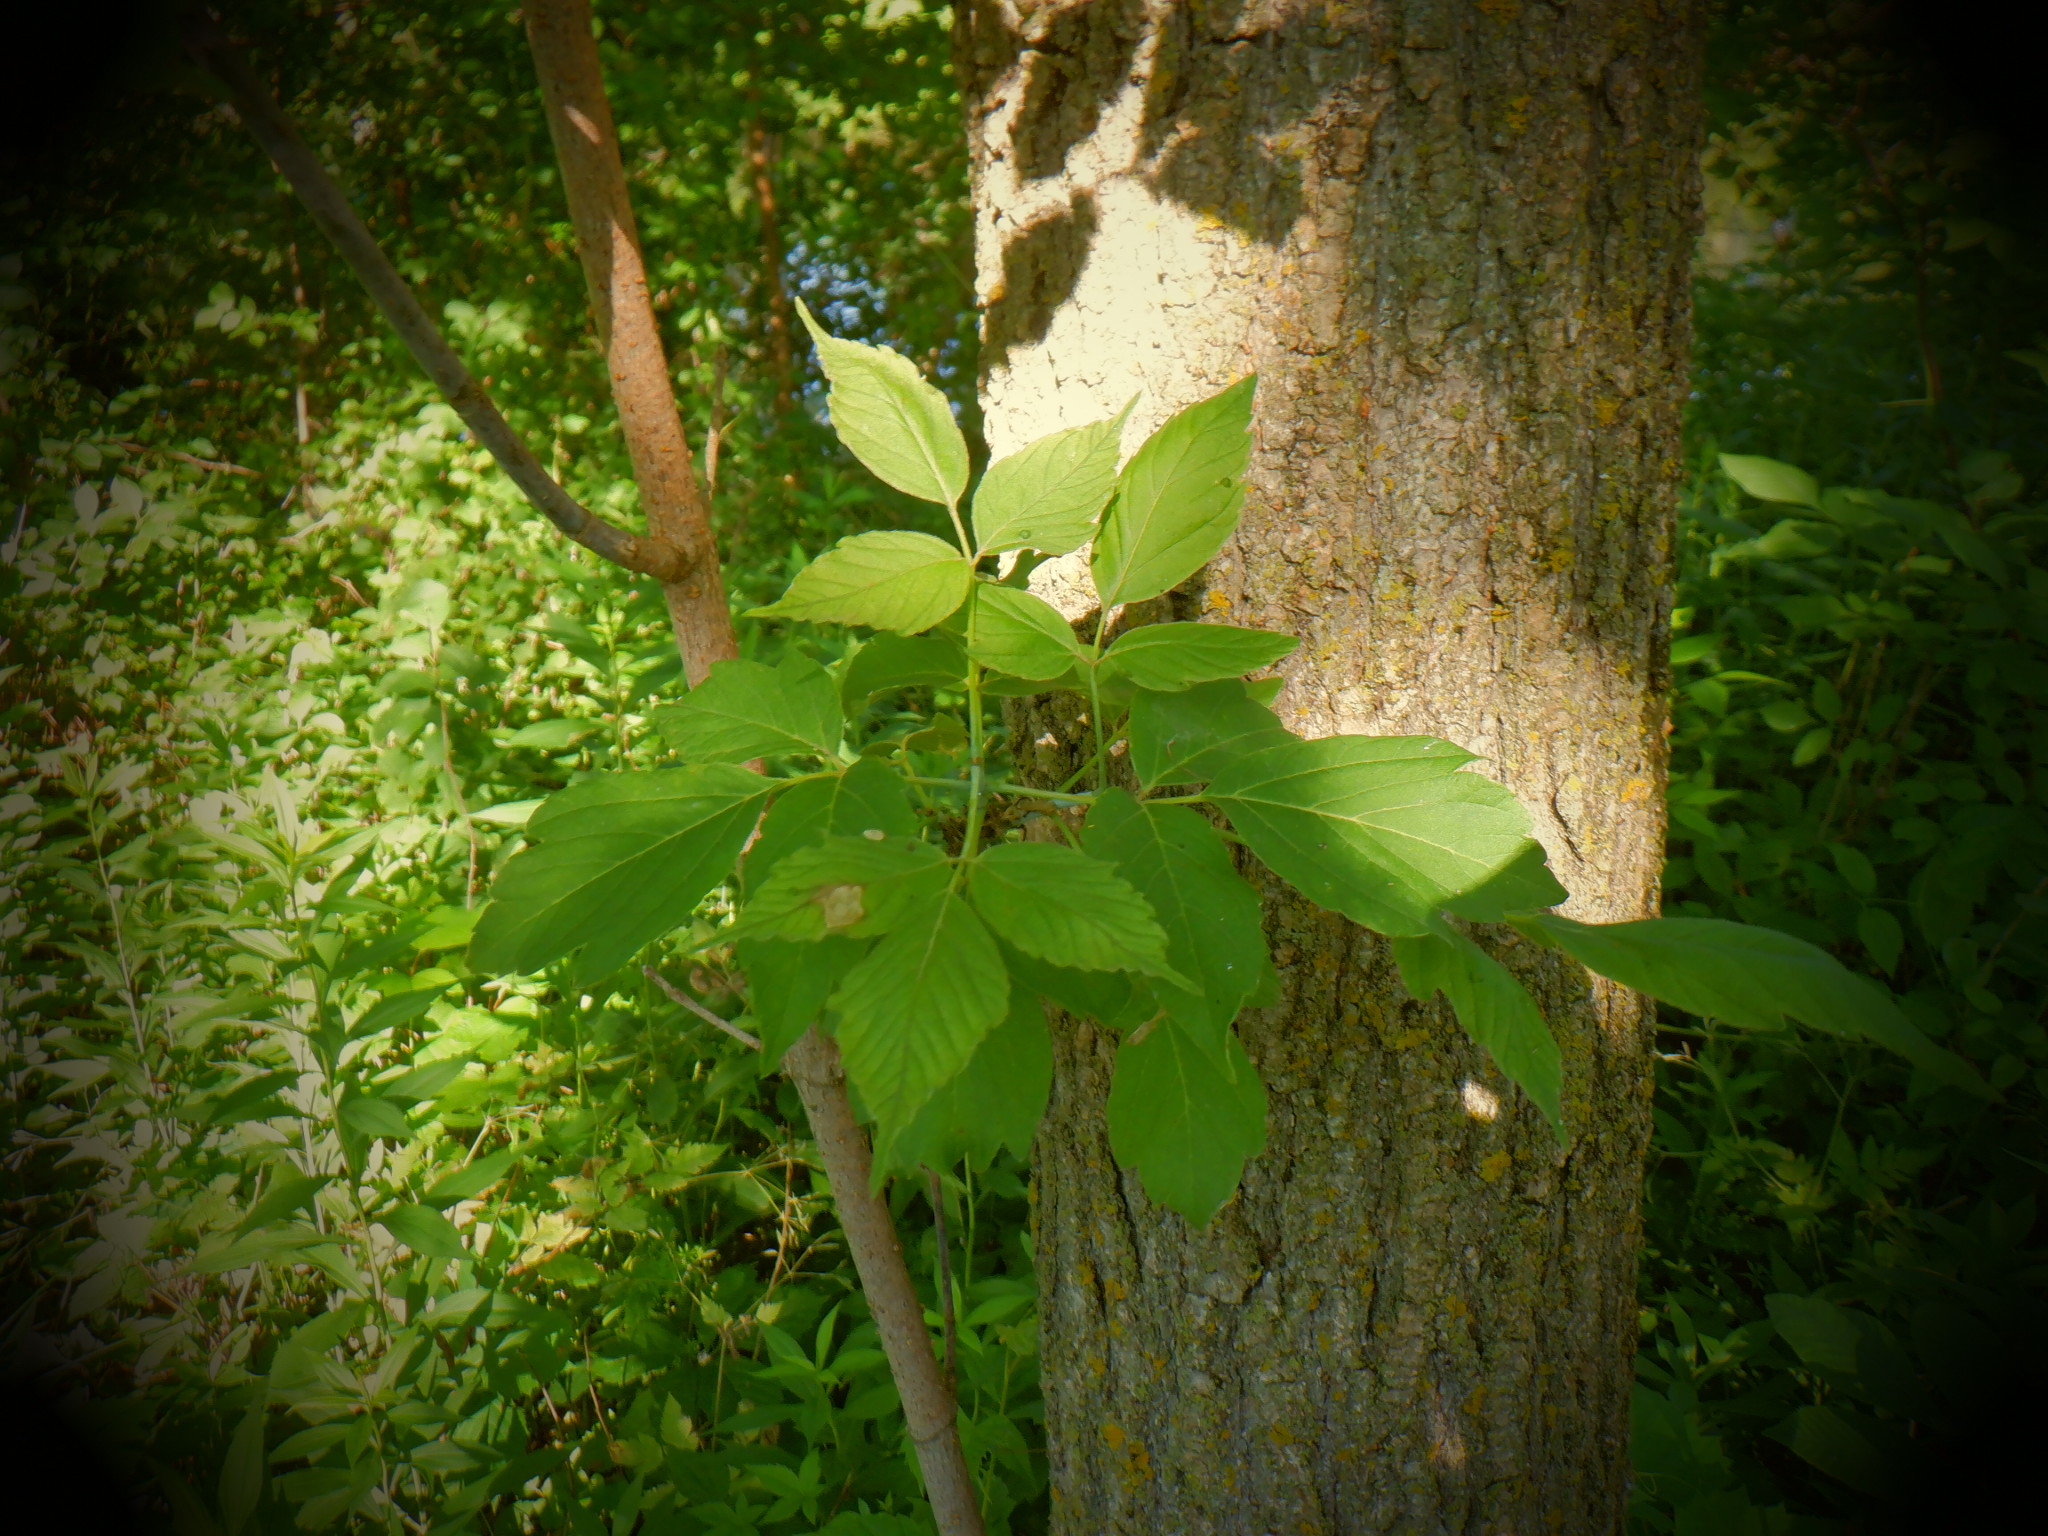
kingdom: Plantae
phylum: Tracheophyta
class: Magnoliopsida
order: Sapindales
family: Sapindaceae
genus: Acer
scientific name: Acer negundo
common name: Ashleaf maple
